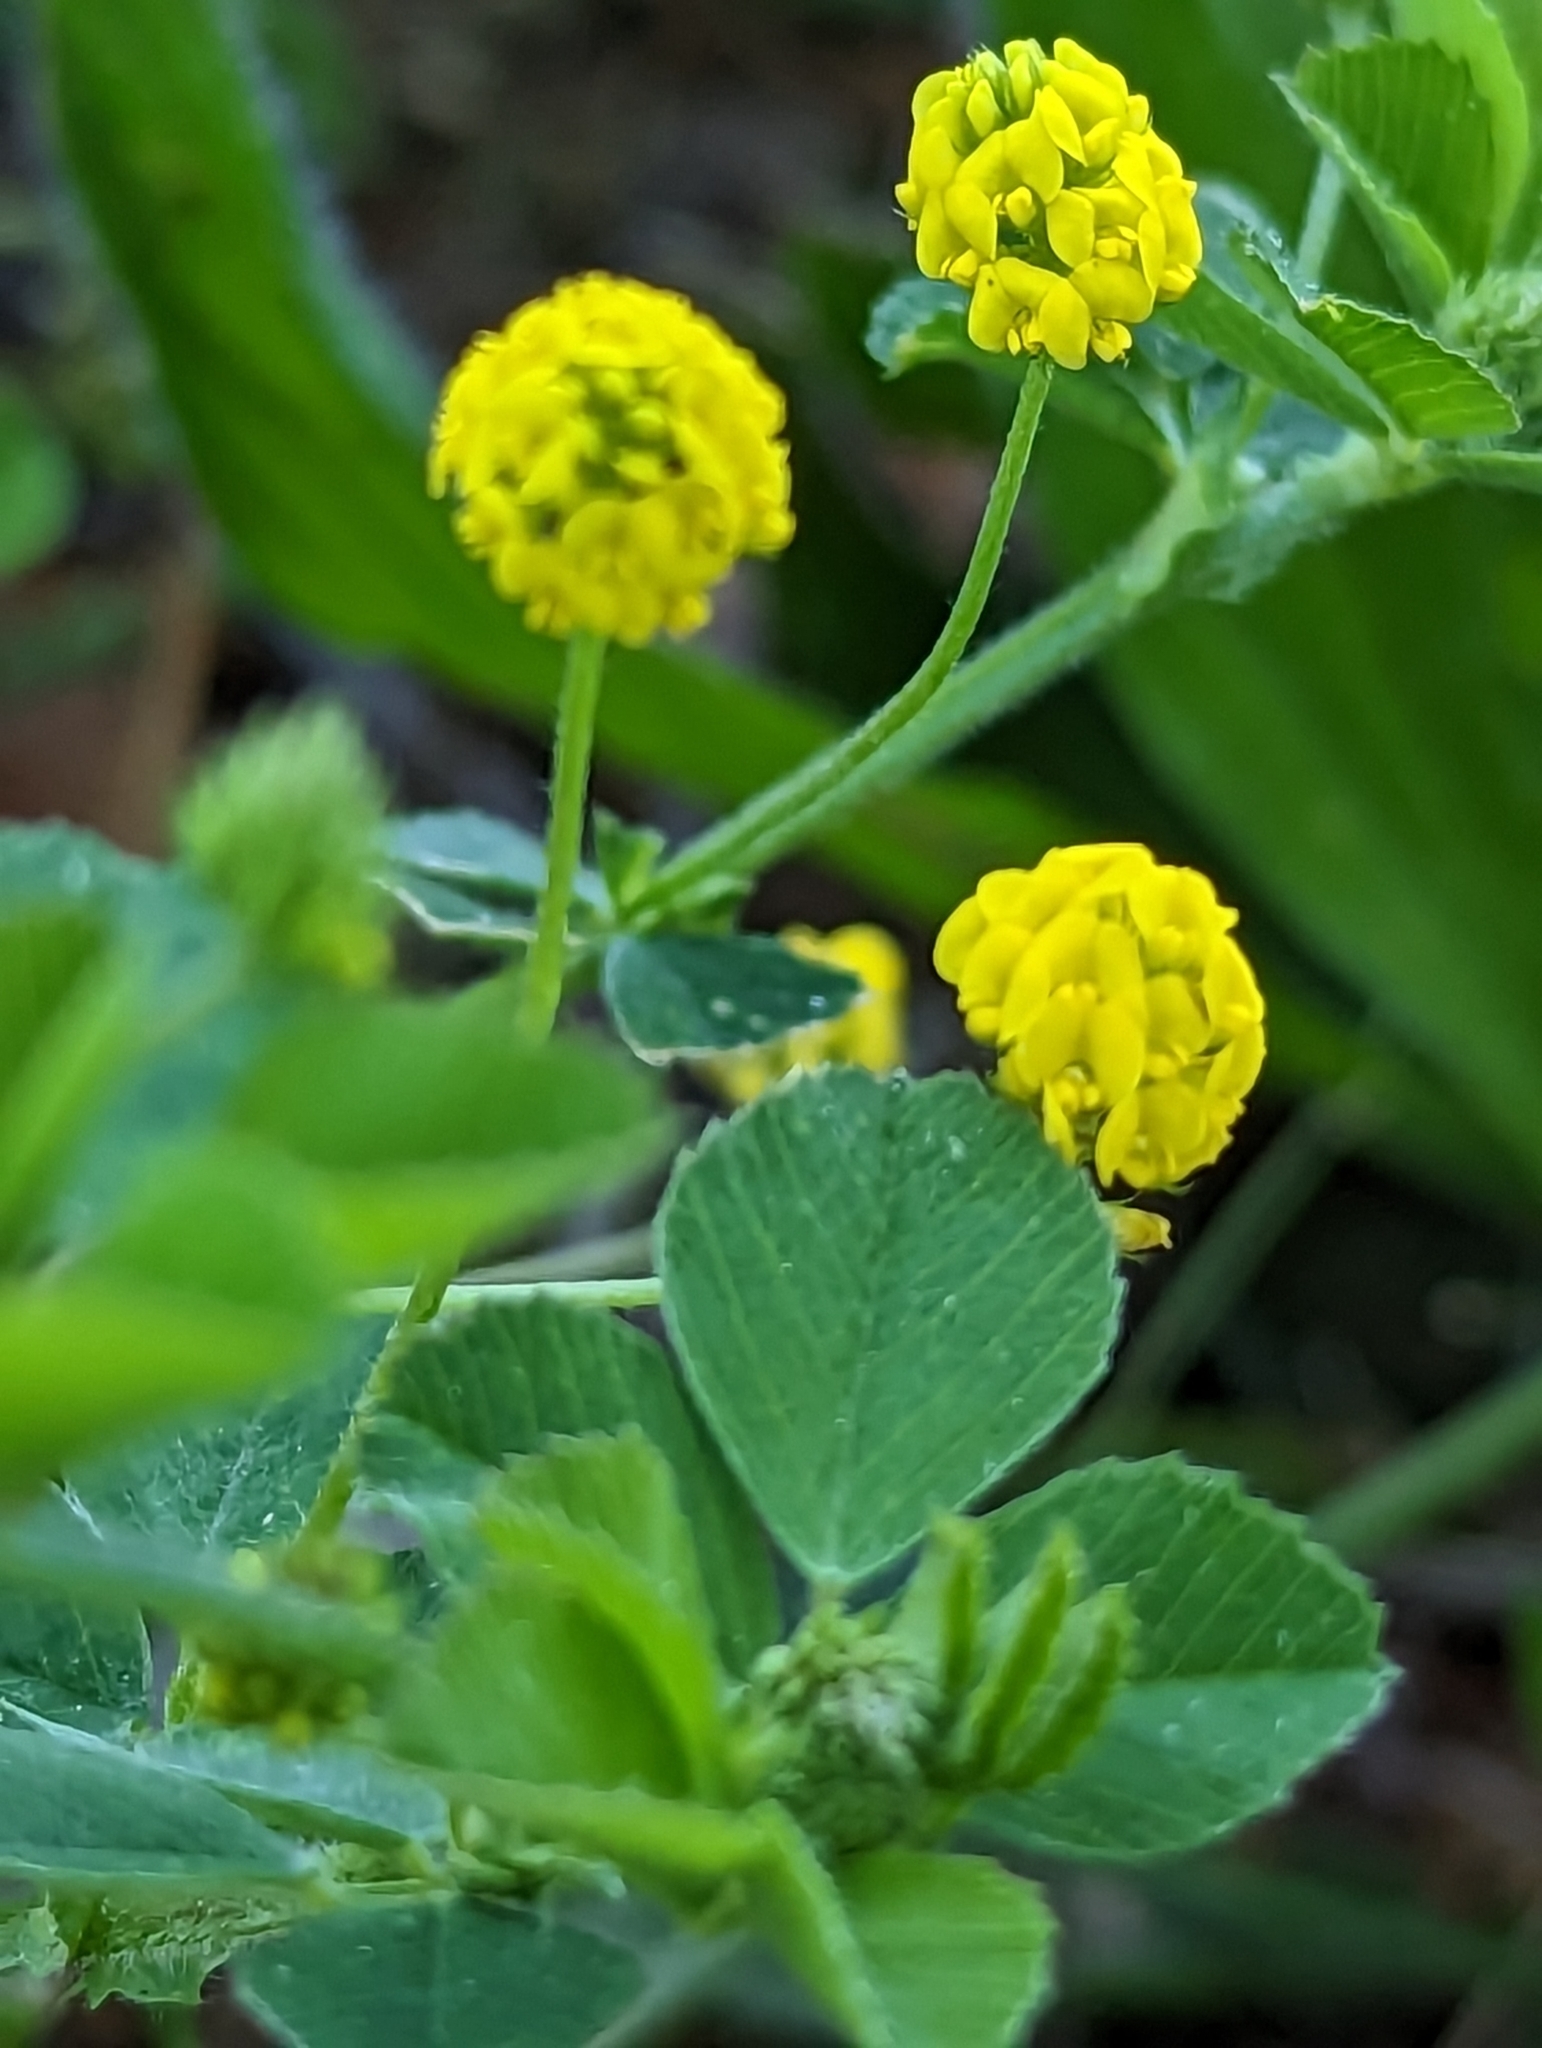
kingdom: Plantae
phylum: Tracheophyta
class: Magnoliopsida
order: Fabales
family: Fabaceae
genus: Medicago
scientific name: Medicago lupulina
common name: Black medick
